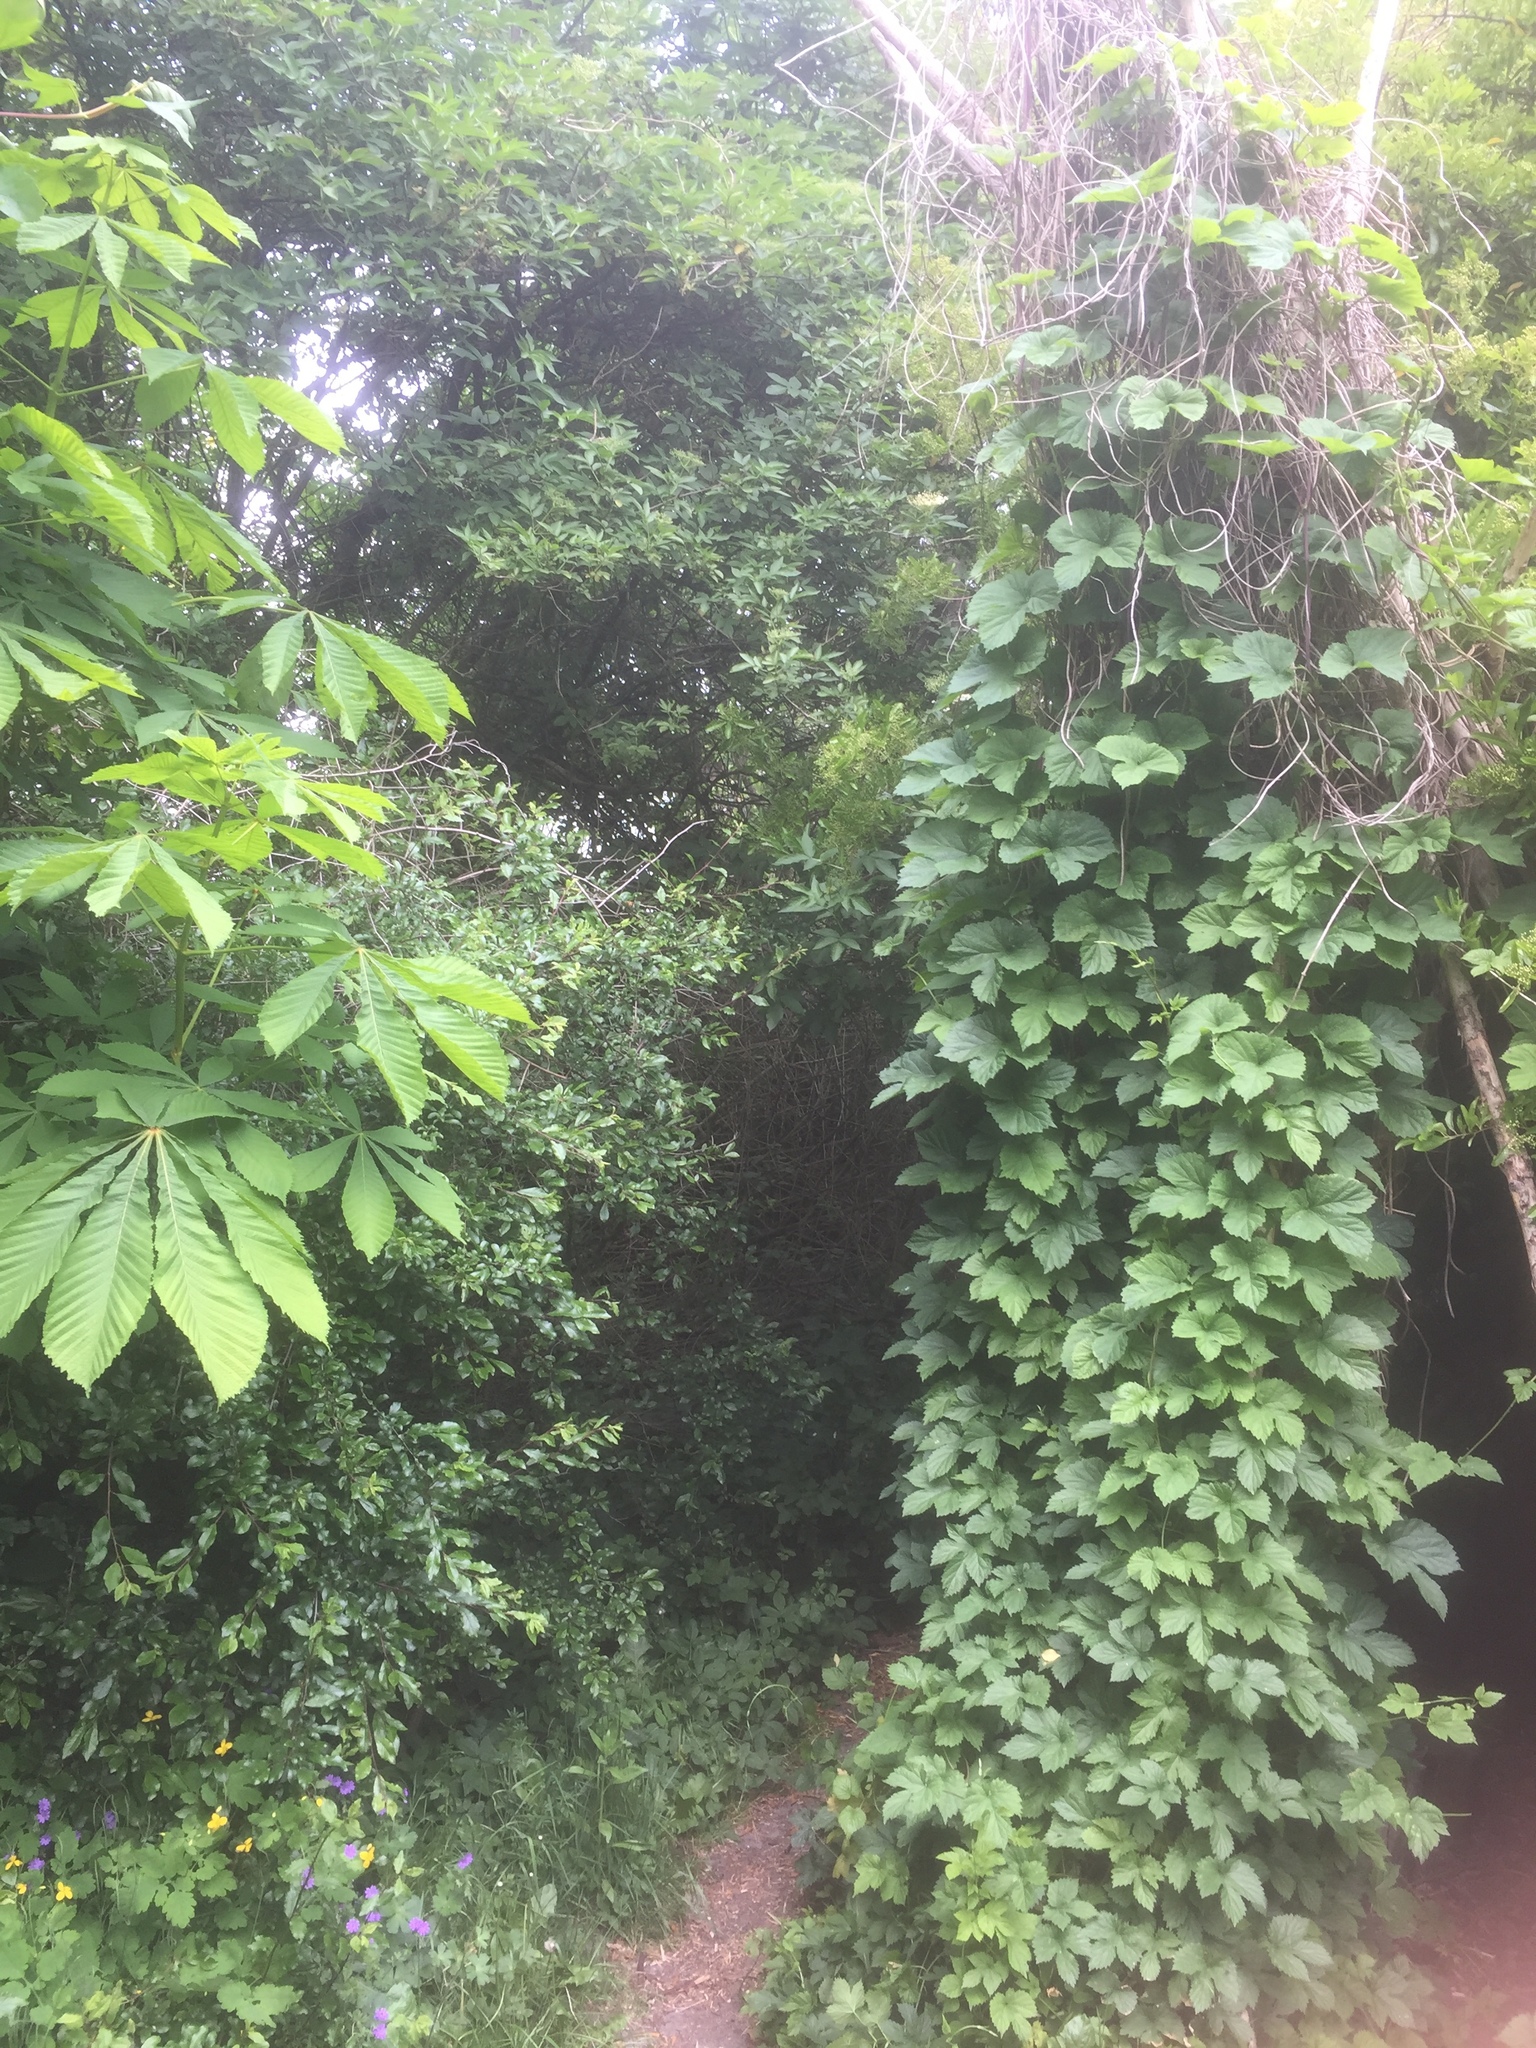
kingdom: Plantae
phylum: Tracheophyta
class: Magnoliopsida
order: Rosales
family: Cannabaceae
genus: Humulus
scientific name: Humulus lupulus
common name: Hop
